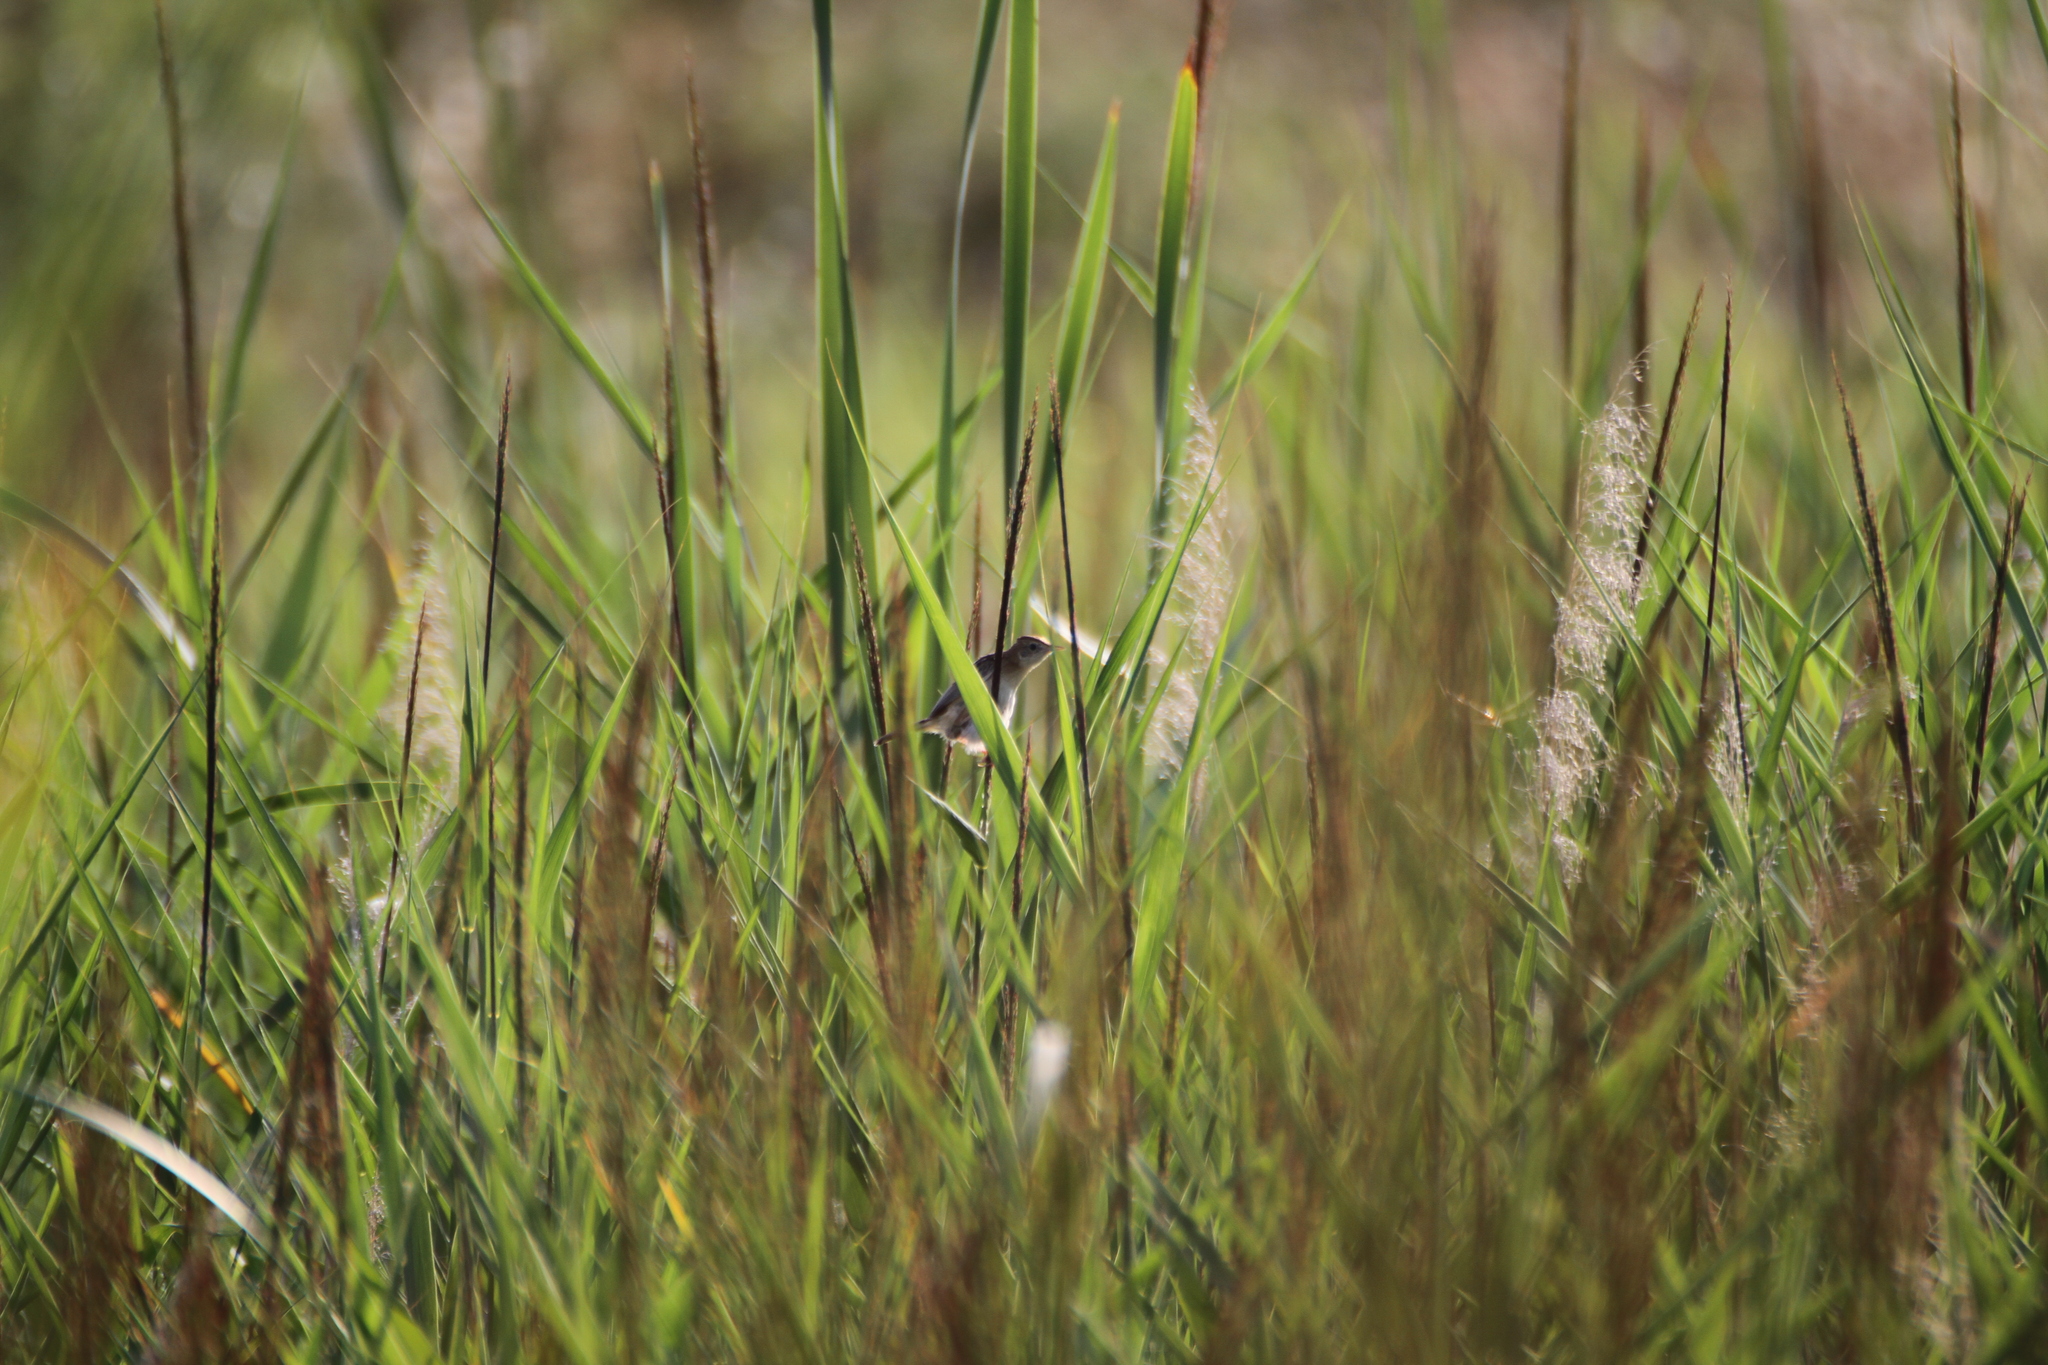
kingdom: Animalia
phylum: Chordata
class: Aves
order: Passeriformes
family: Cisticolidae
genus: Cisticola
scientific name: Cisticola juncidis
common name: Zitting cisticola
